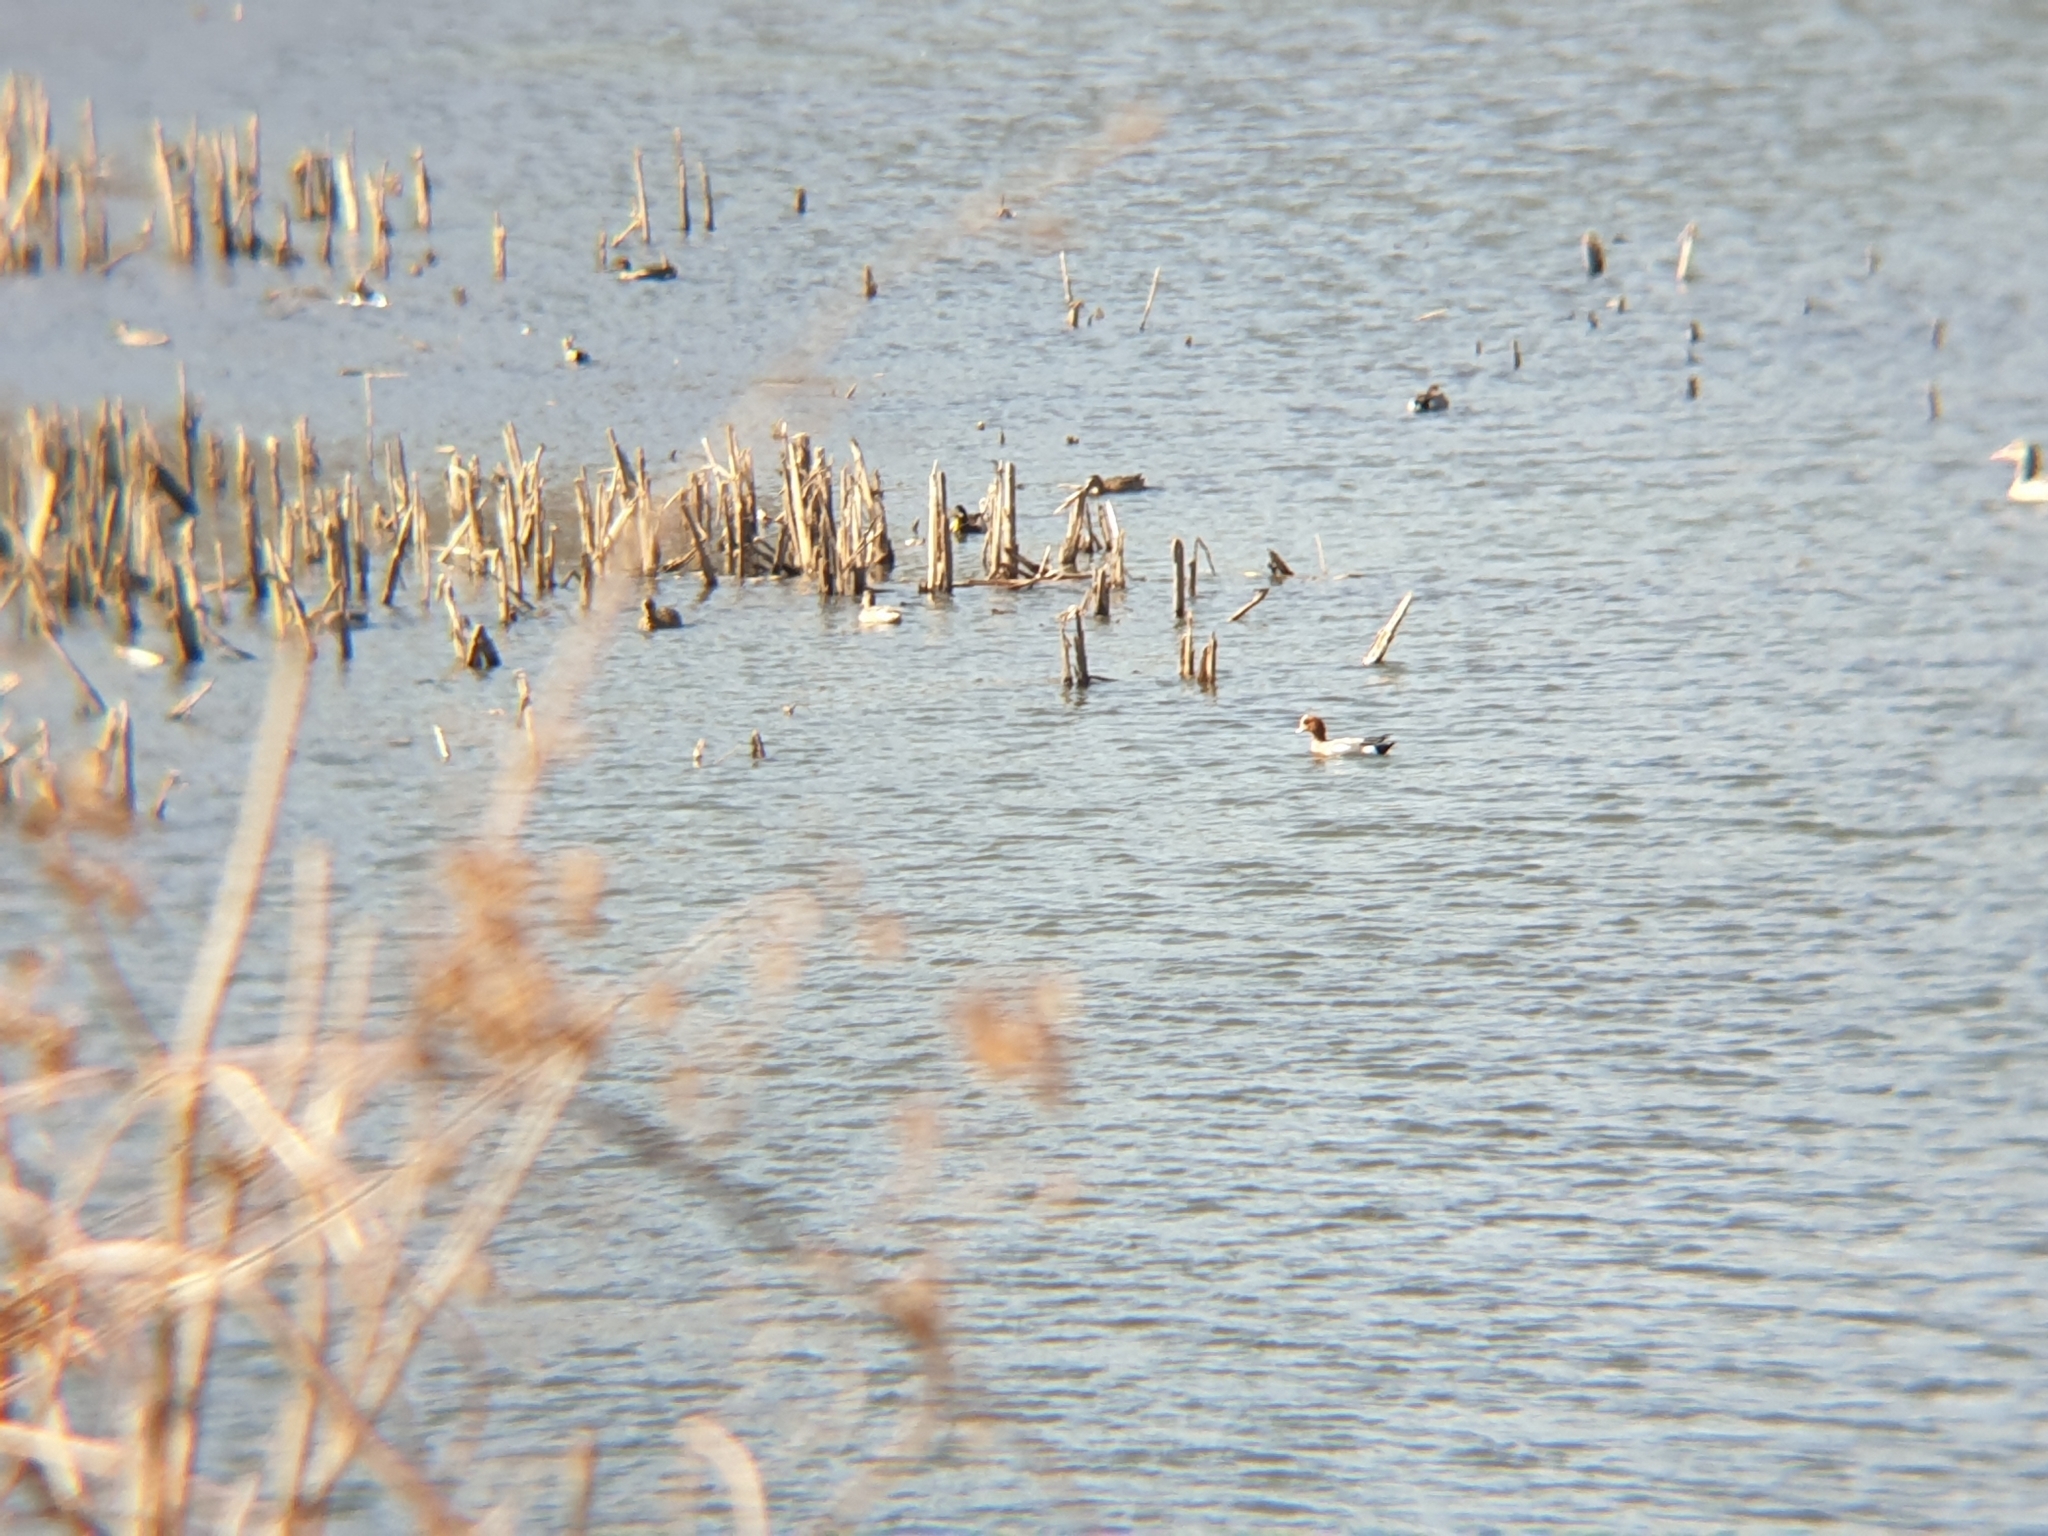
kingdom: Animalia
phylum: Chordata
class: Aves
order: Anseriformes
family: Anatidae
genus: Mareca
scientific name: Mareca penelope
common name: Eurasian wigeon
